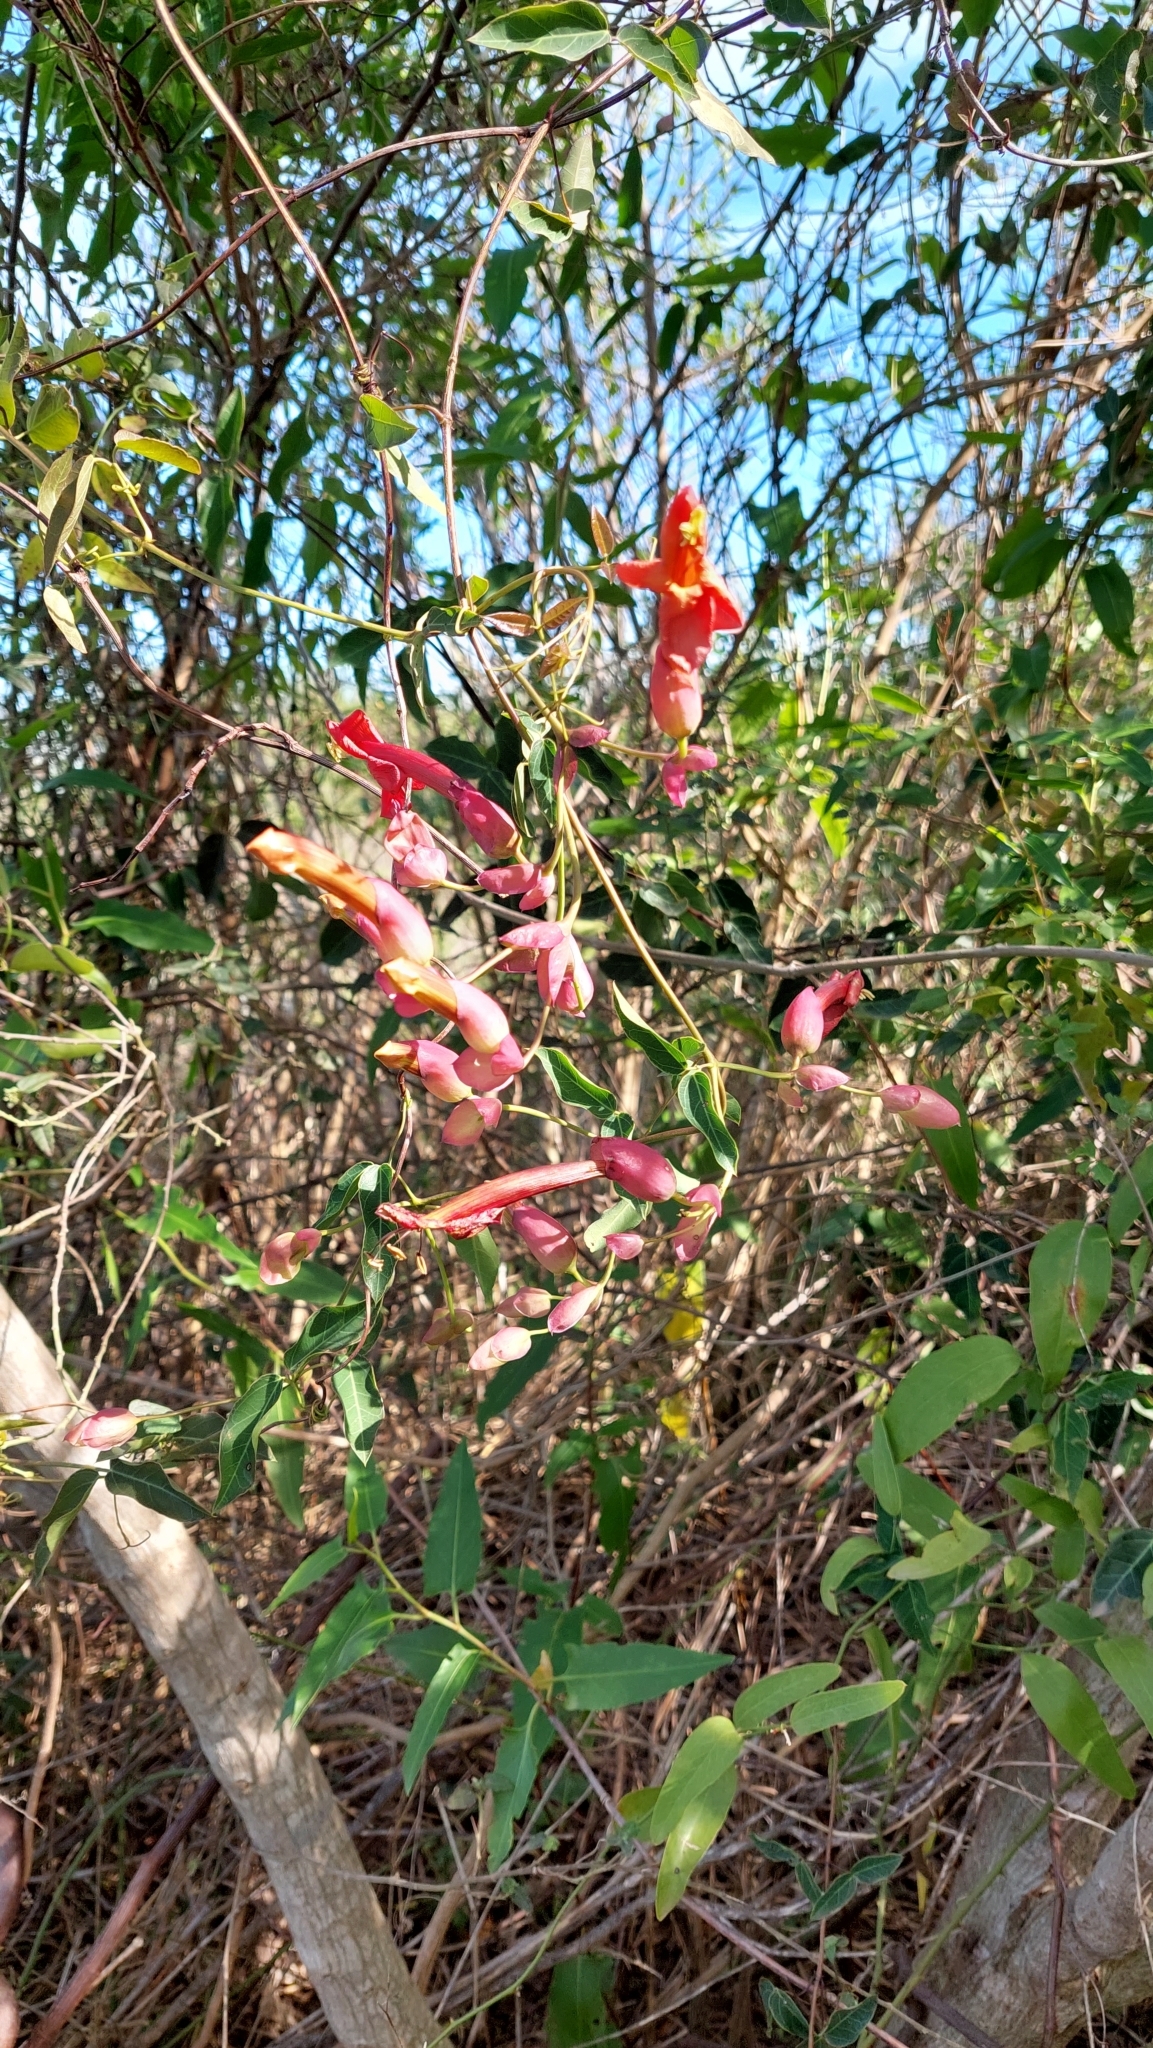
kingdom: Plantae
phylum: Tracheophyta
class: Magnoliopsida
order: Lamiales
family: Bignoniaceae
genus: Dolichandra
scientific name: Dolichandra cynanchoides
